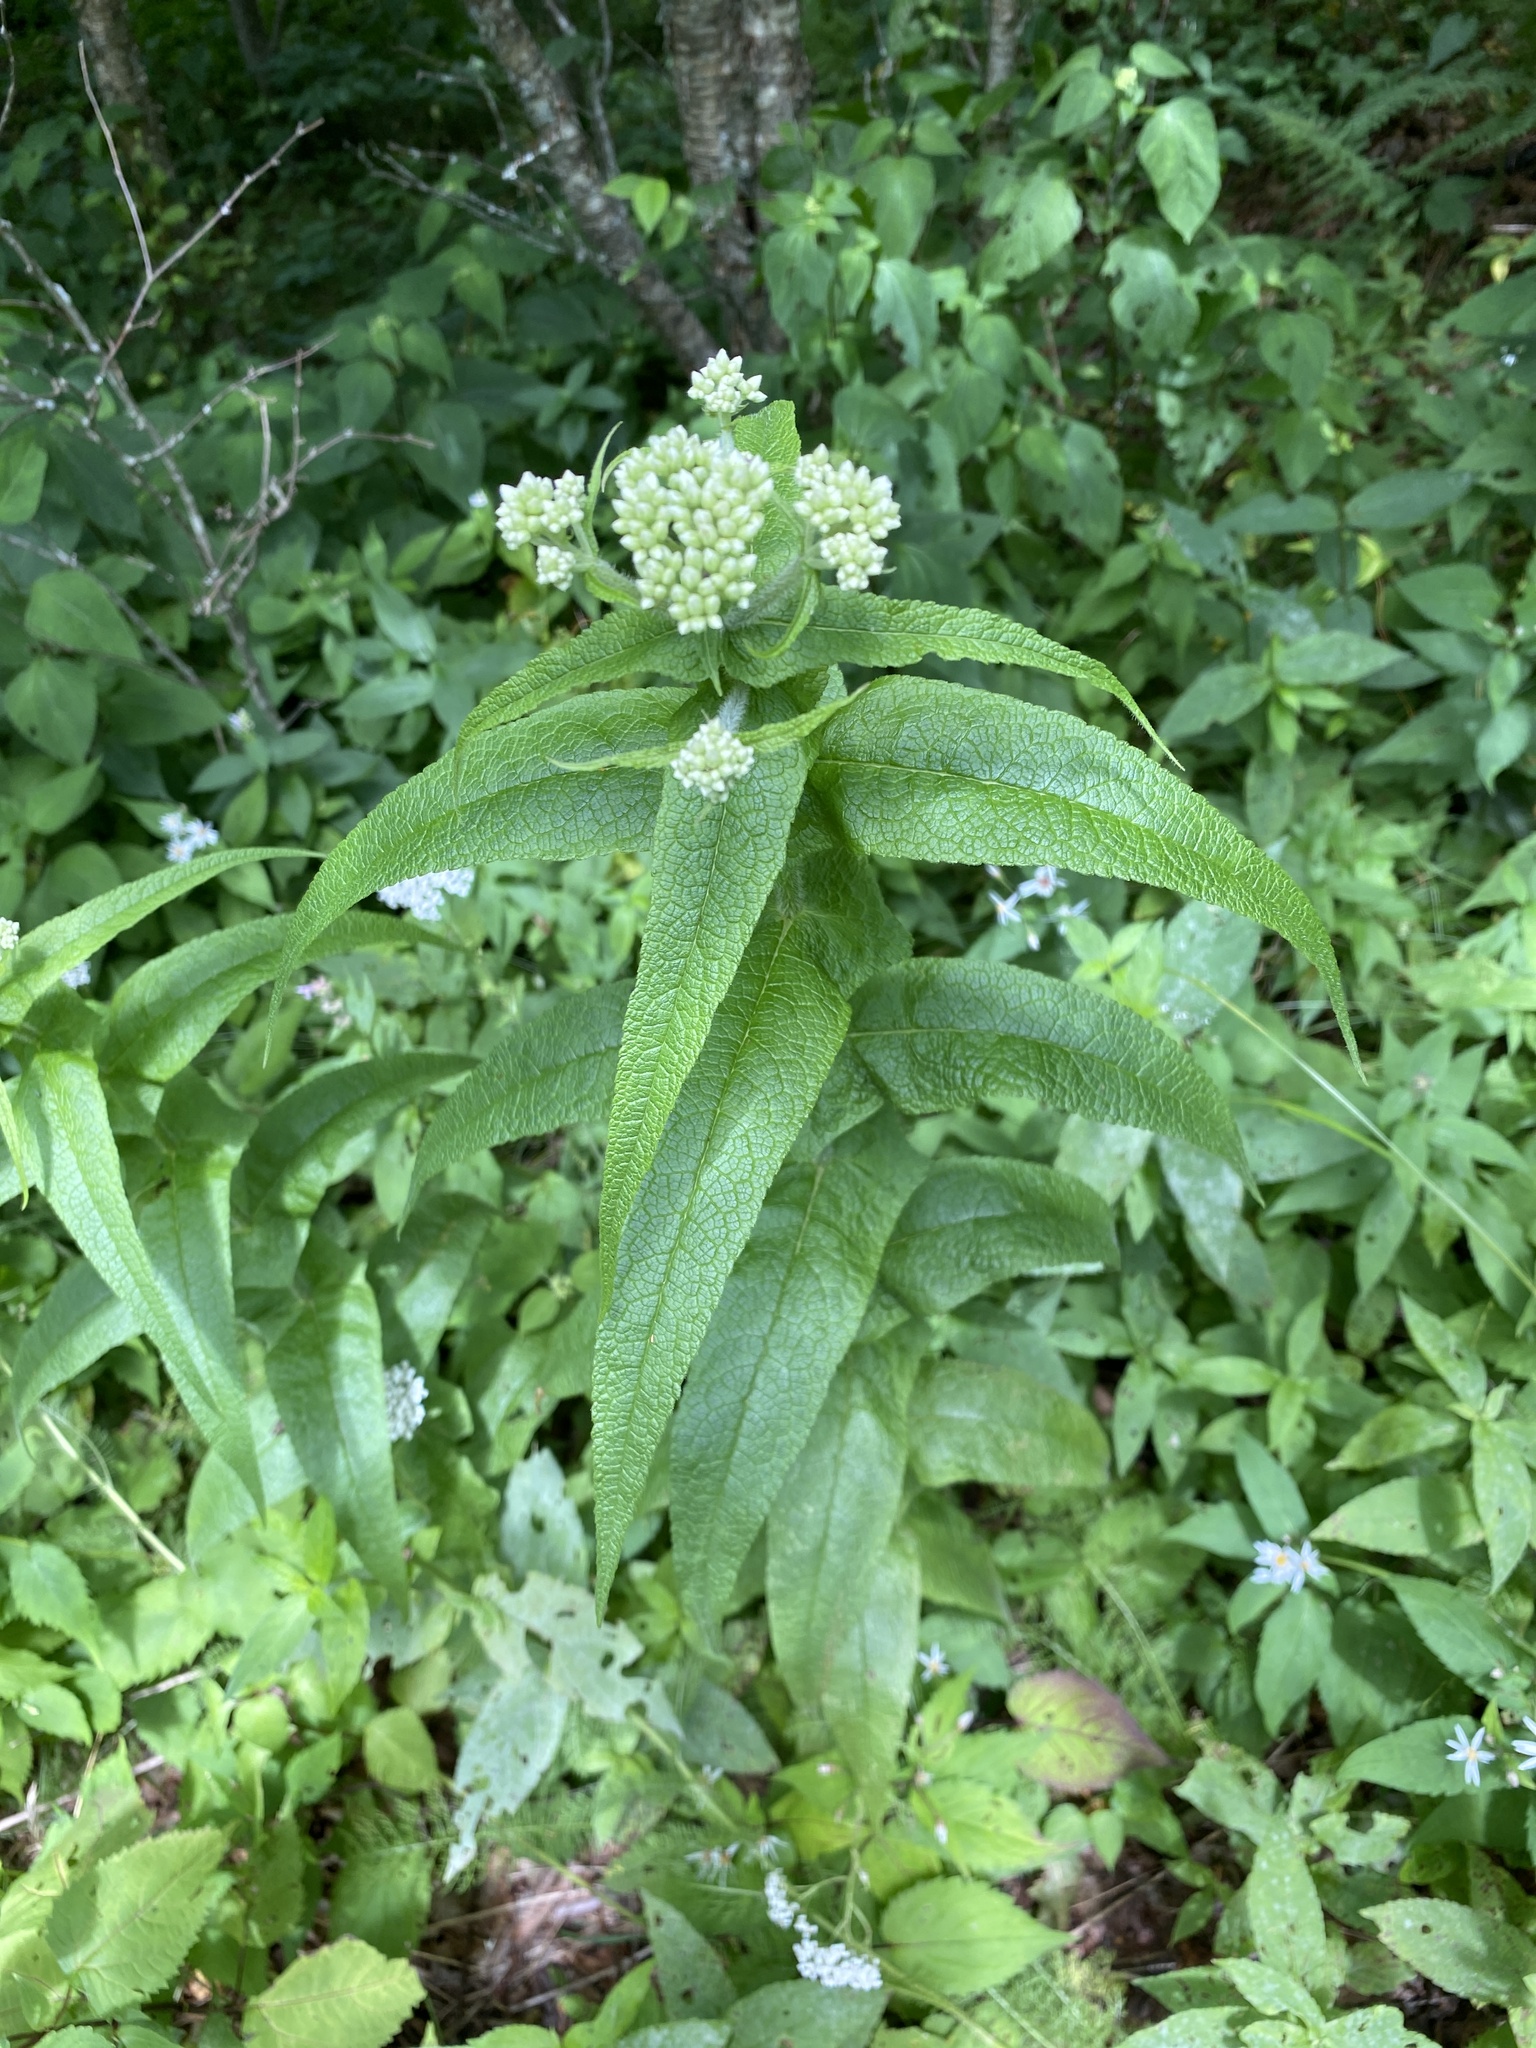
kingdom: Plantae
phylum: Tracheophyta
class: Magnoliopsida
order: Asterales
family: Asteraceae
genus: Eupatorium
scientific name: Eupatorium perfoliatum
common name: Boneset
